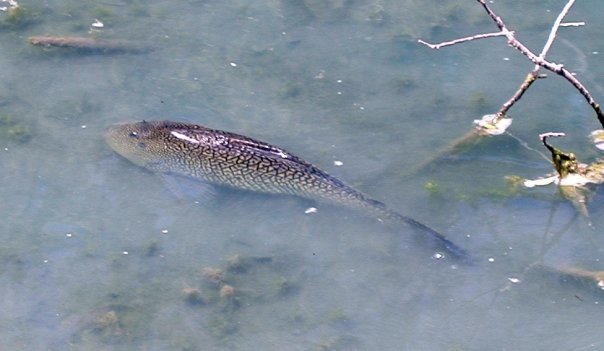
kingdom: Animalia
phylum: Chordata
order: Siluriformes
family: Loricariidae
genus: Pterygoplichthys
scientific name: Pterygoplichthys
